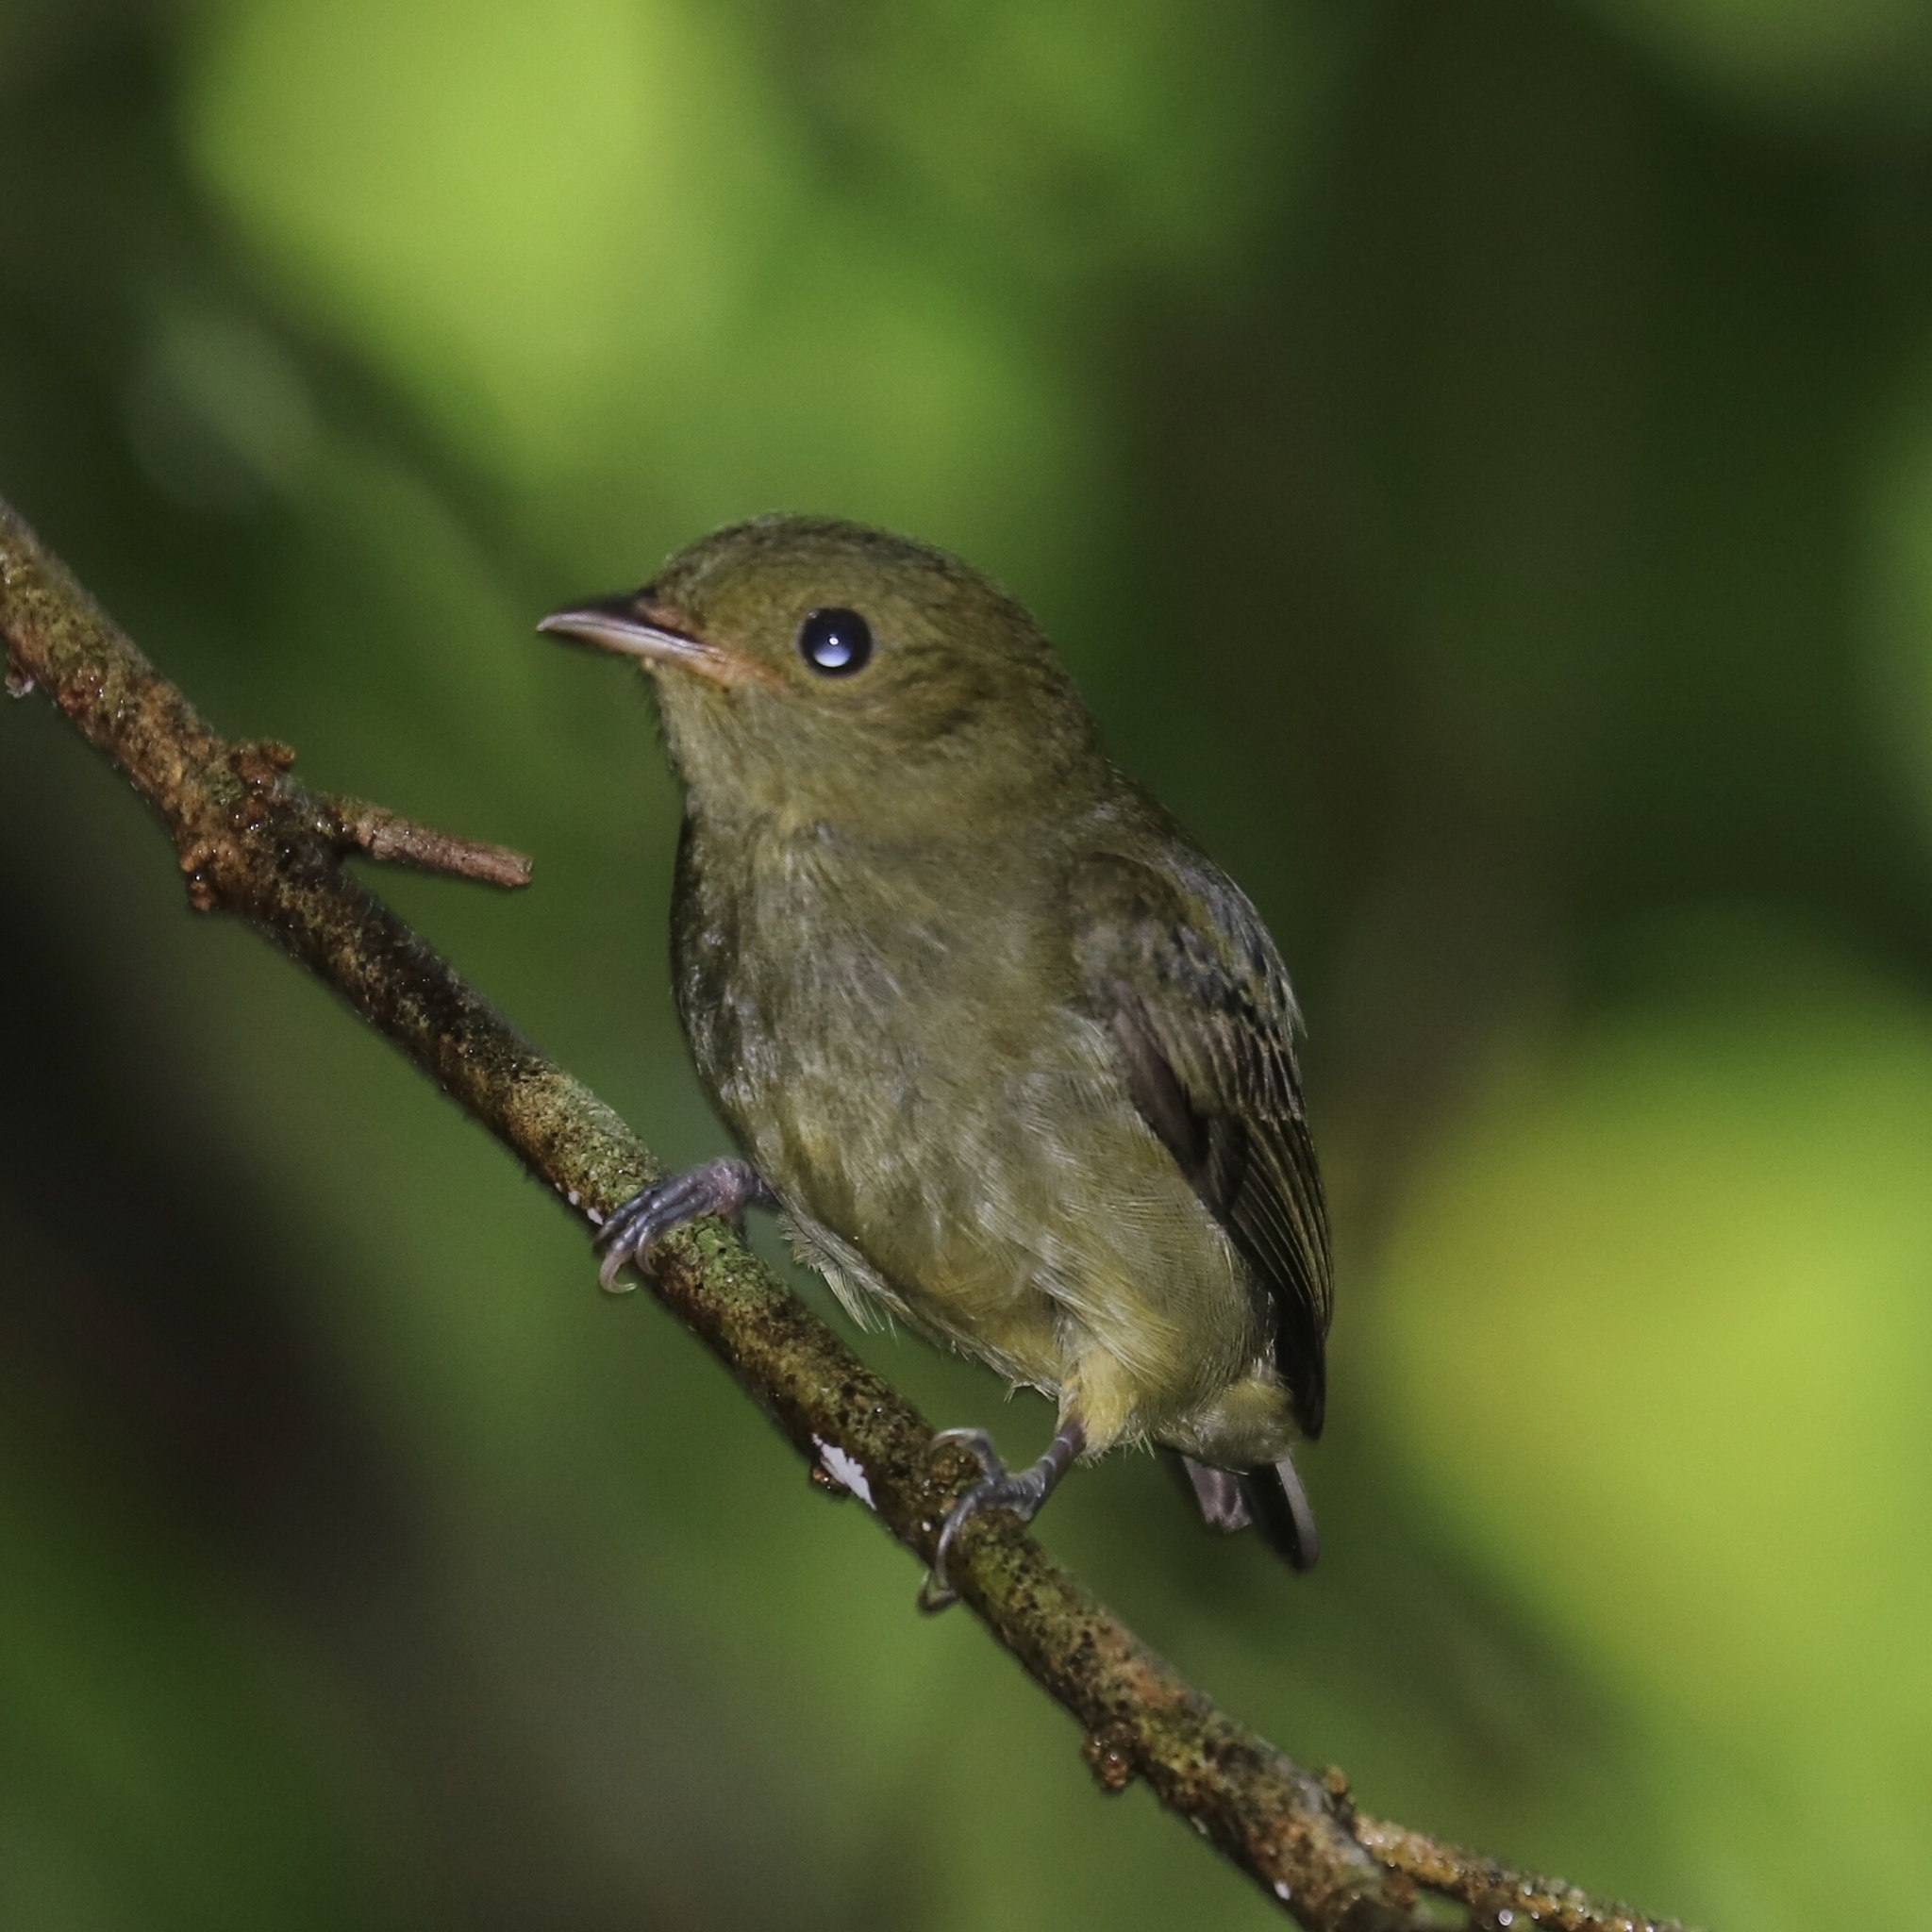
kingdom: Animalia
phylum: Chordata
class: Aves
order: Passeriformes
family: Pipridae
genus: Pipra
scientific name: Pipra mentalis
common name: Red-capped manakin
